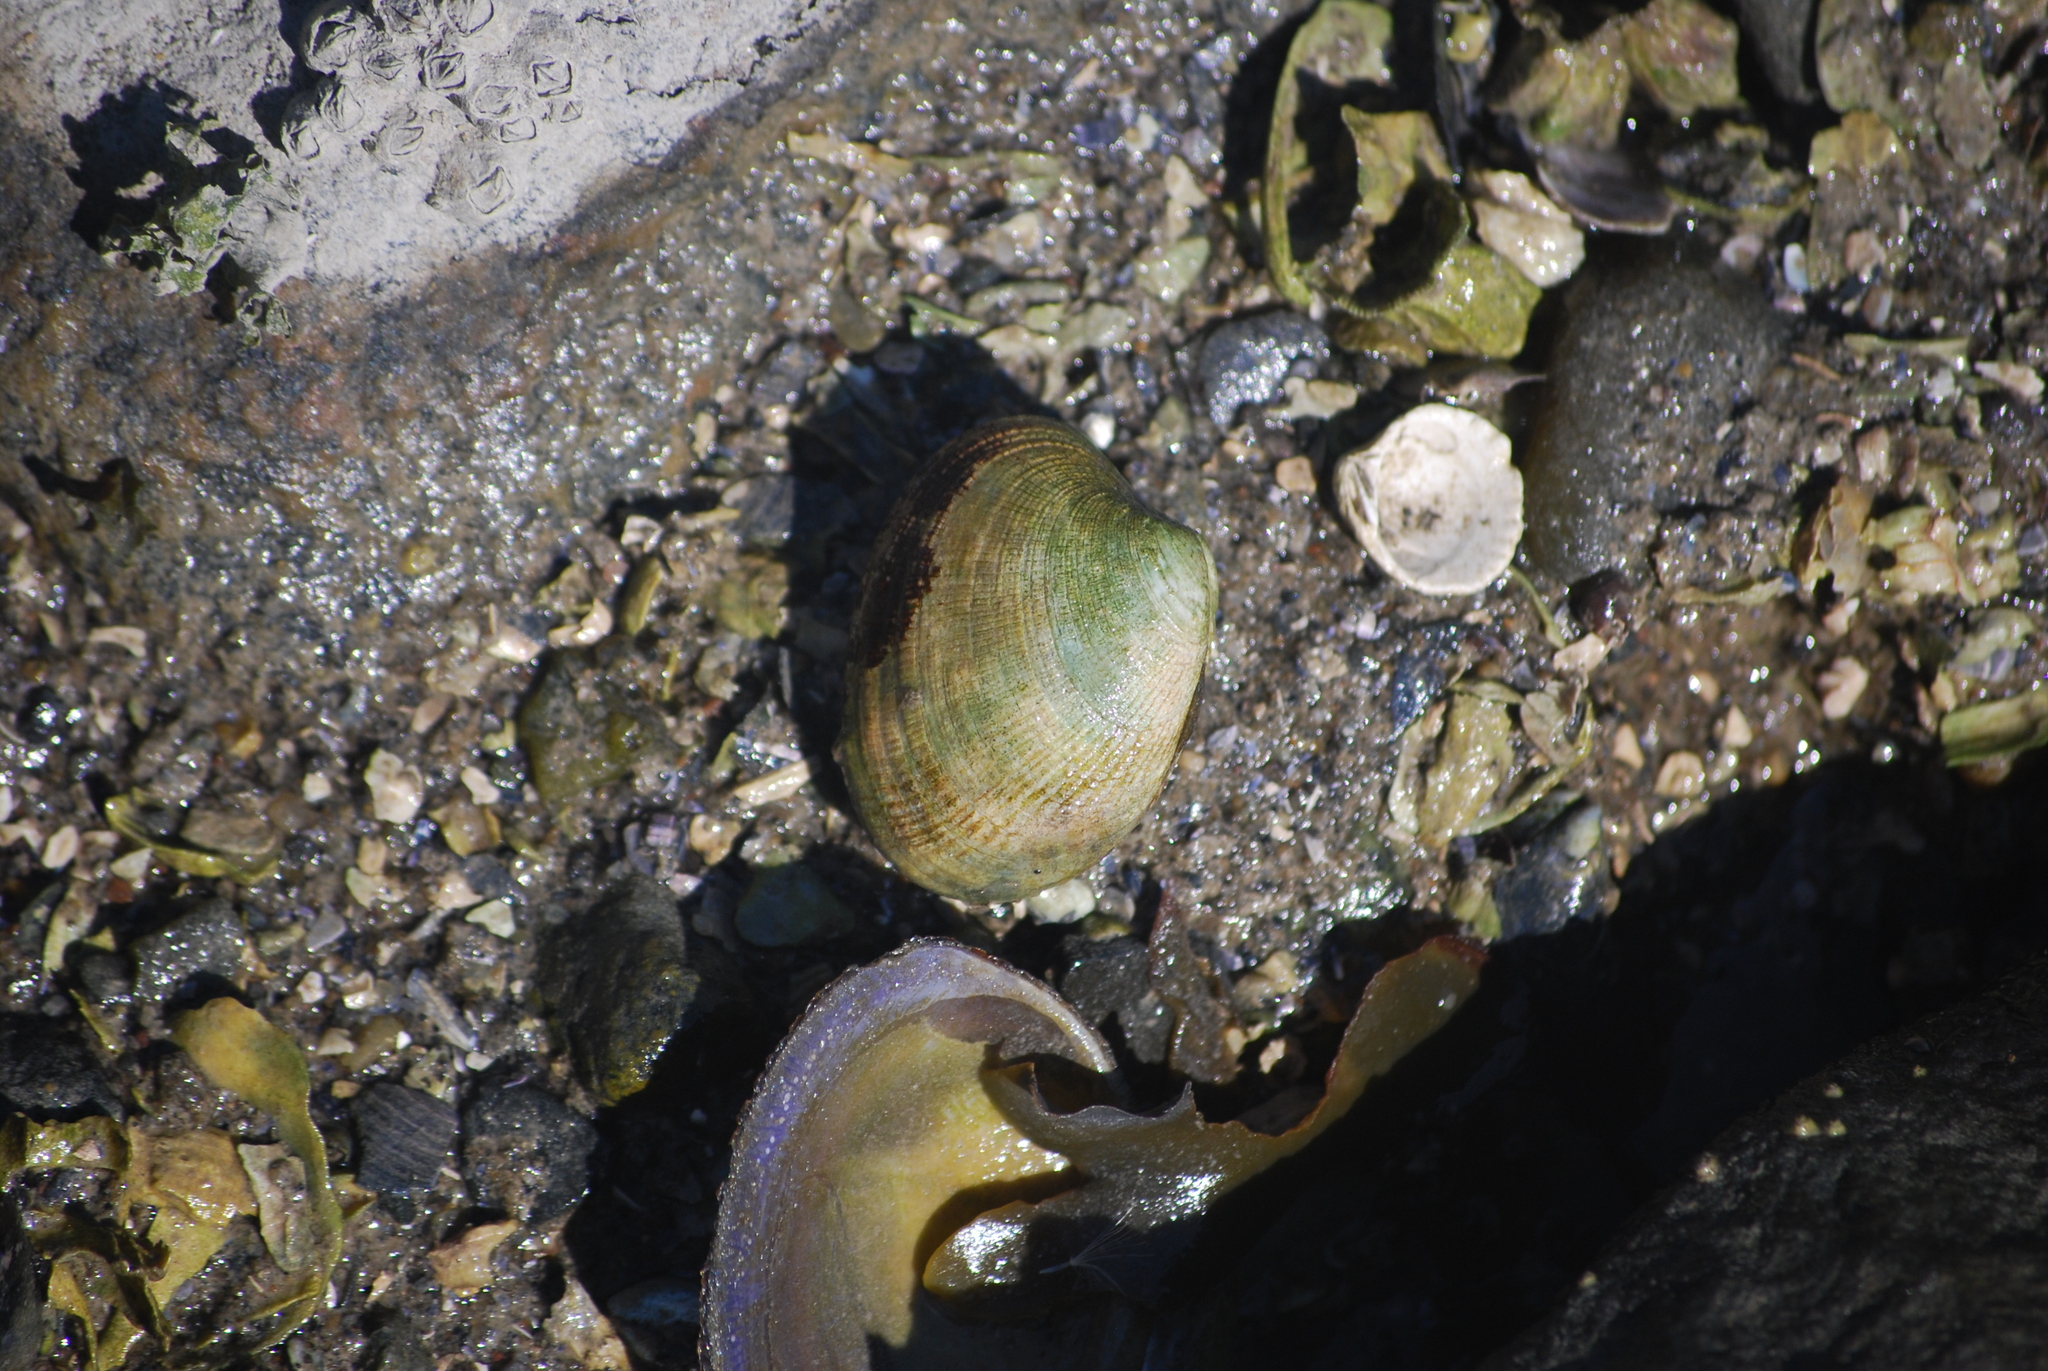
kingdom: Animalia
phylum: Mollusca
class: Bivalvia
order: Venerida
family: Veneridae
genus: Ruditapes
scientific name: Ruditapes philippinarum
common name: Manila clam
